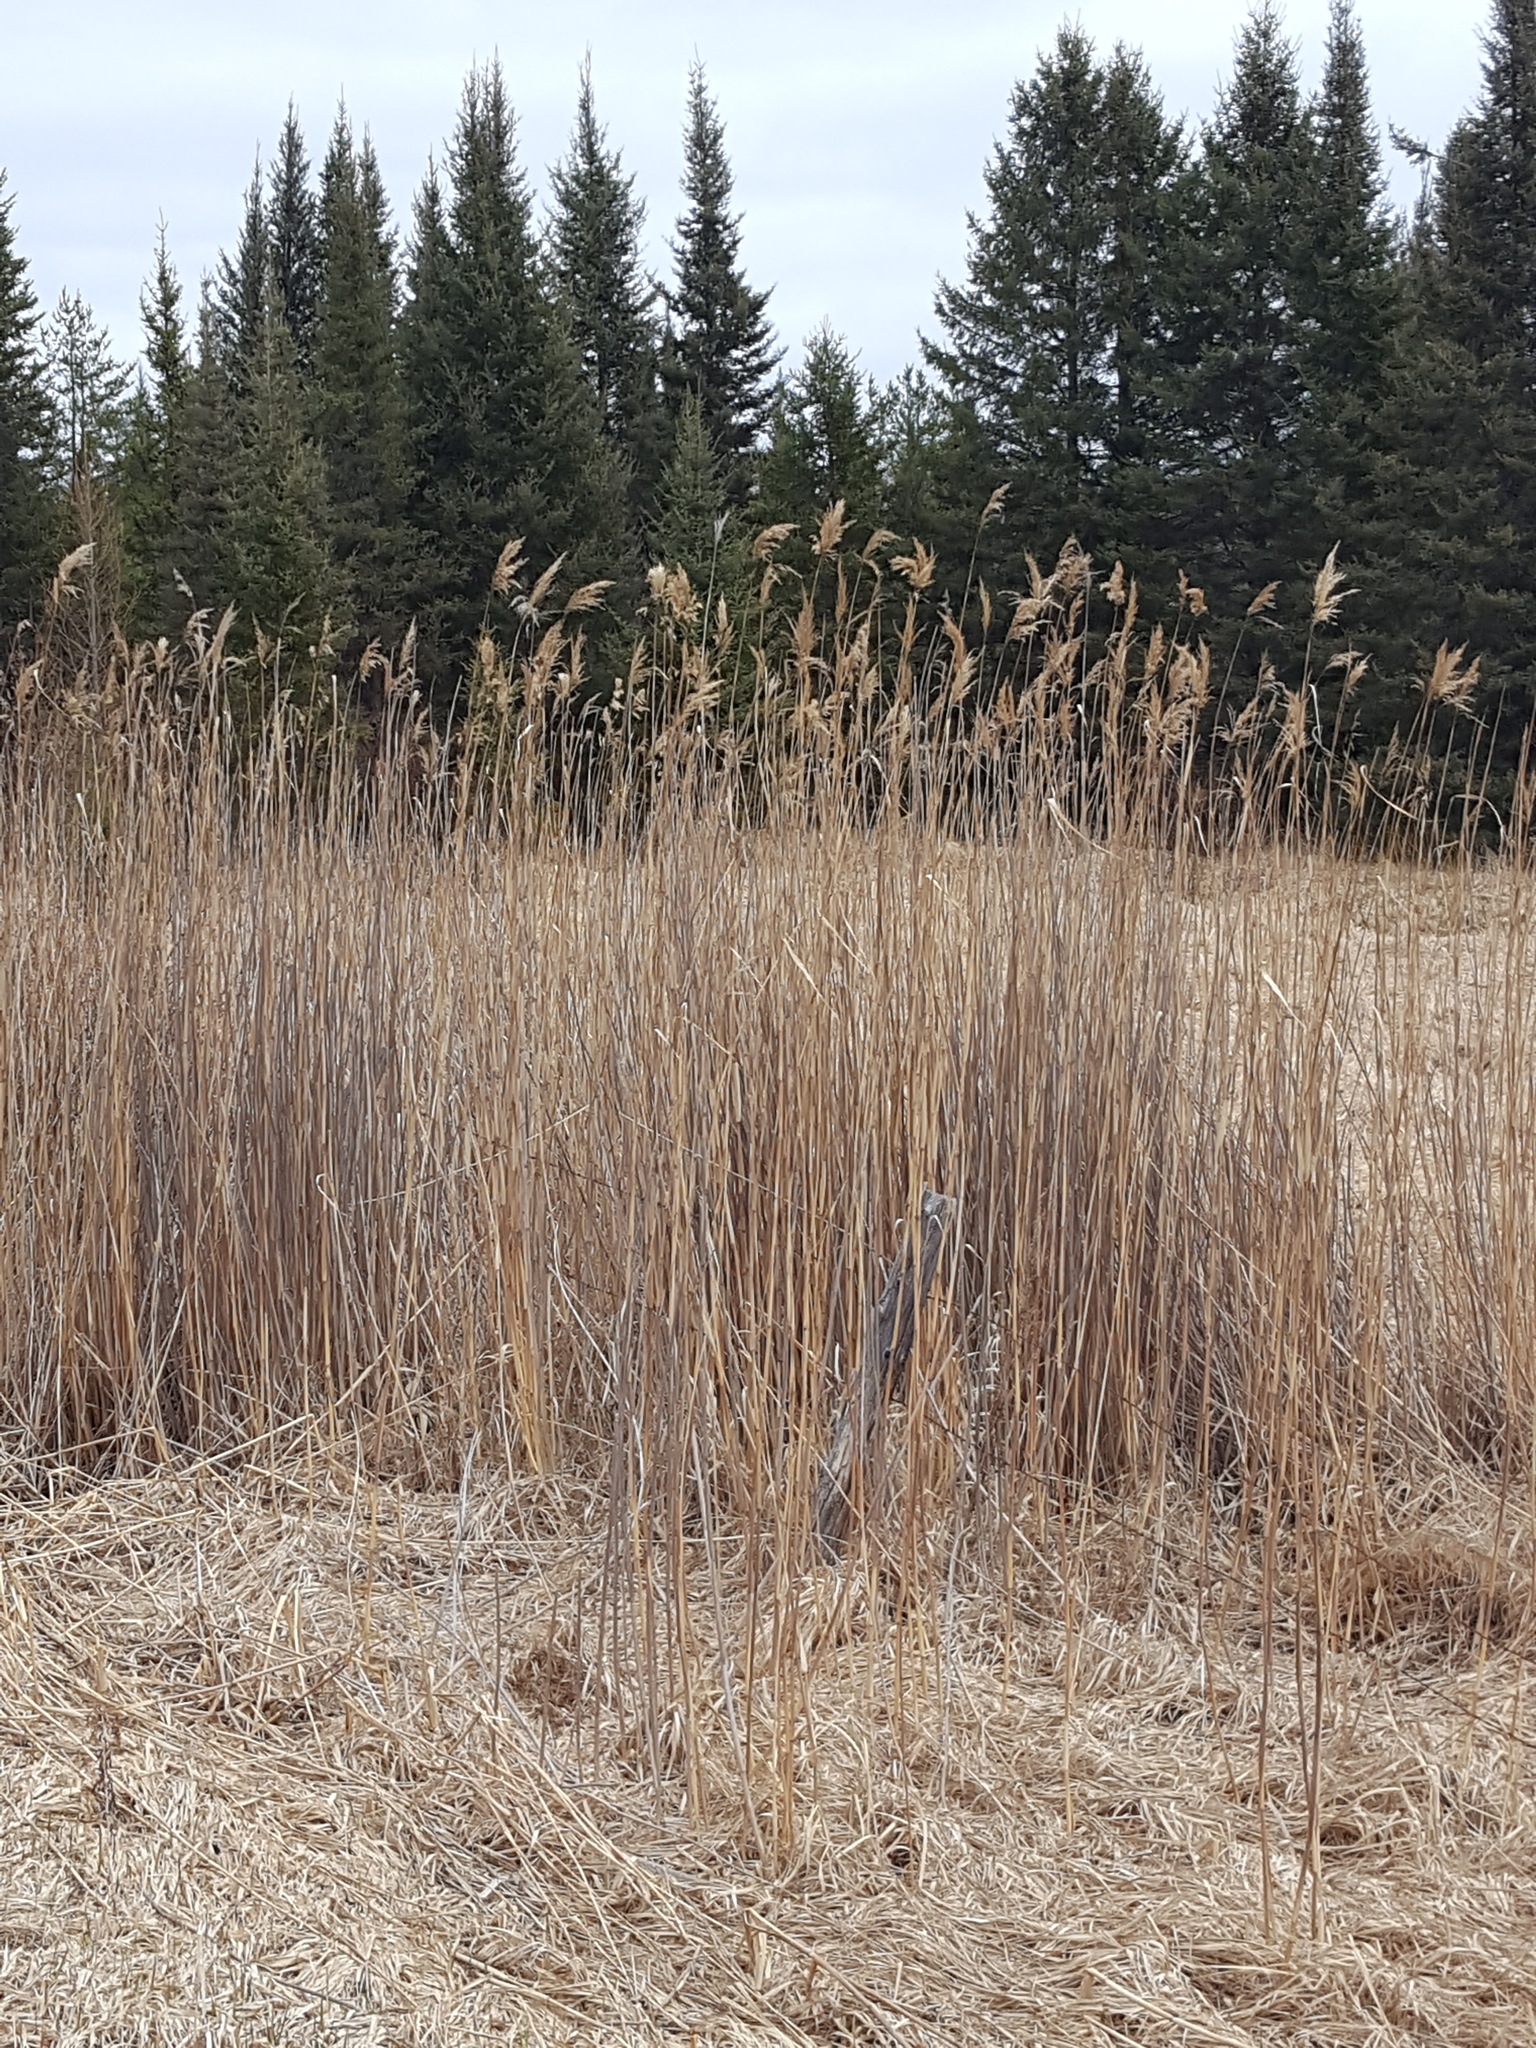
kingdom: Plantae
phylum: Tracheophyta
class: Liliopsida
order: Poales
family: Poaceae
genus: Phragmites
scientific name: Phragmites australis
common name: Common reed
